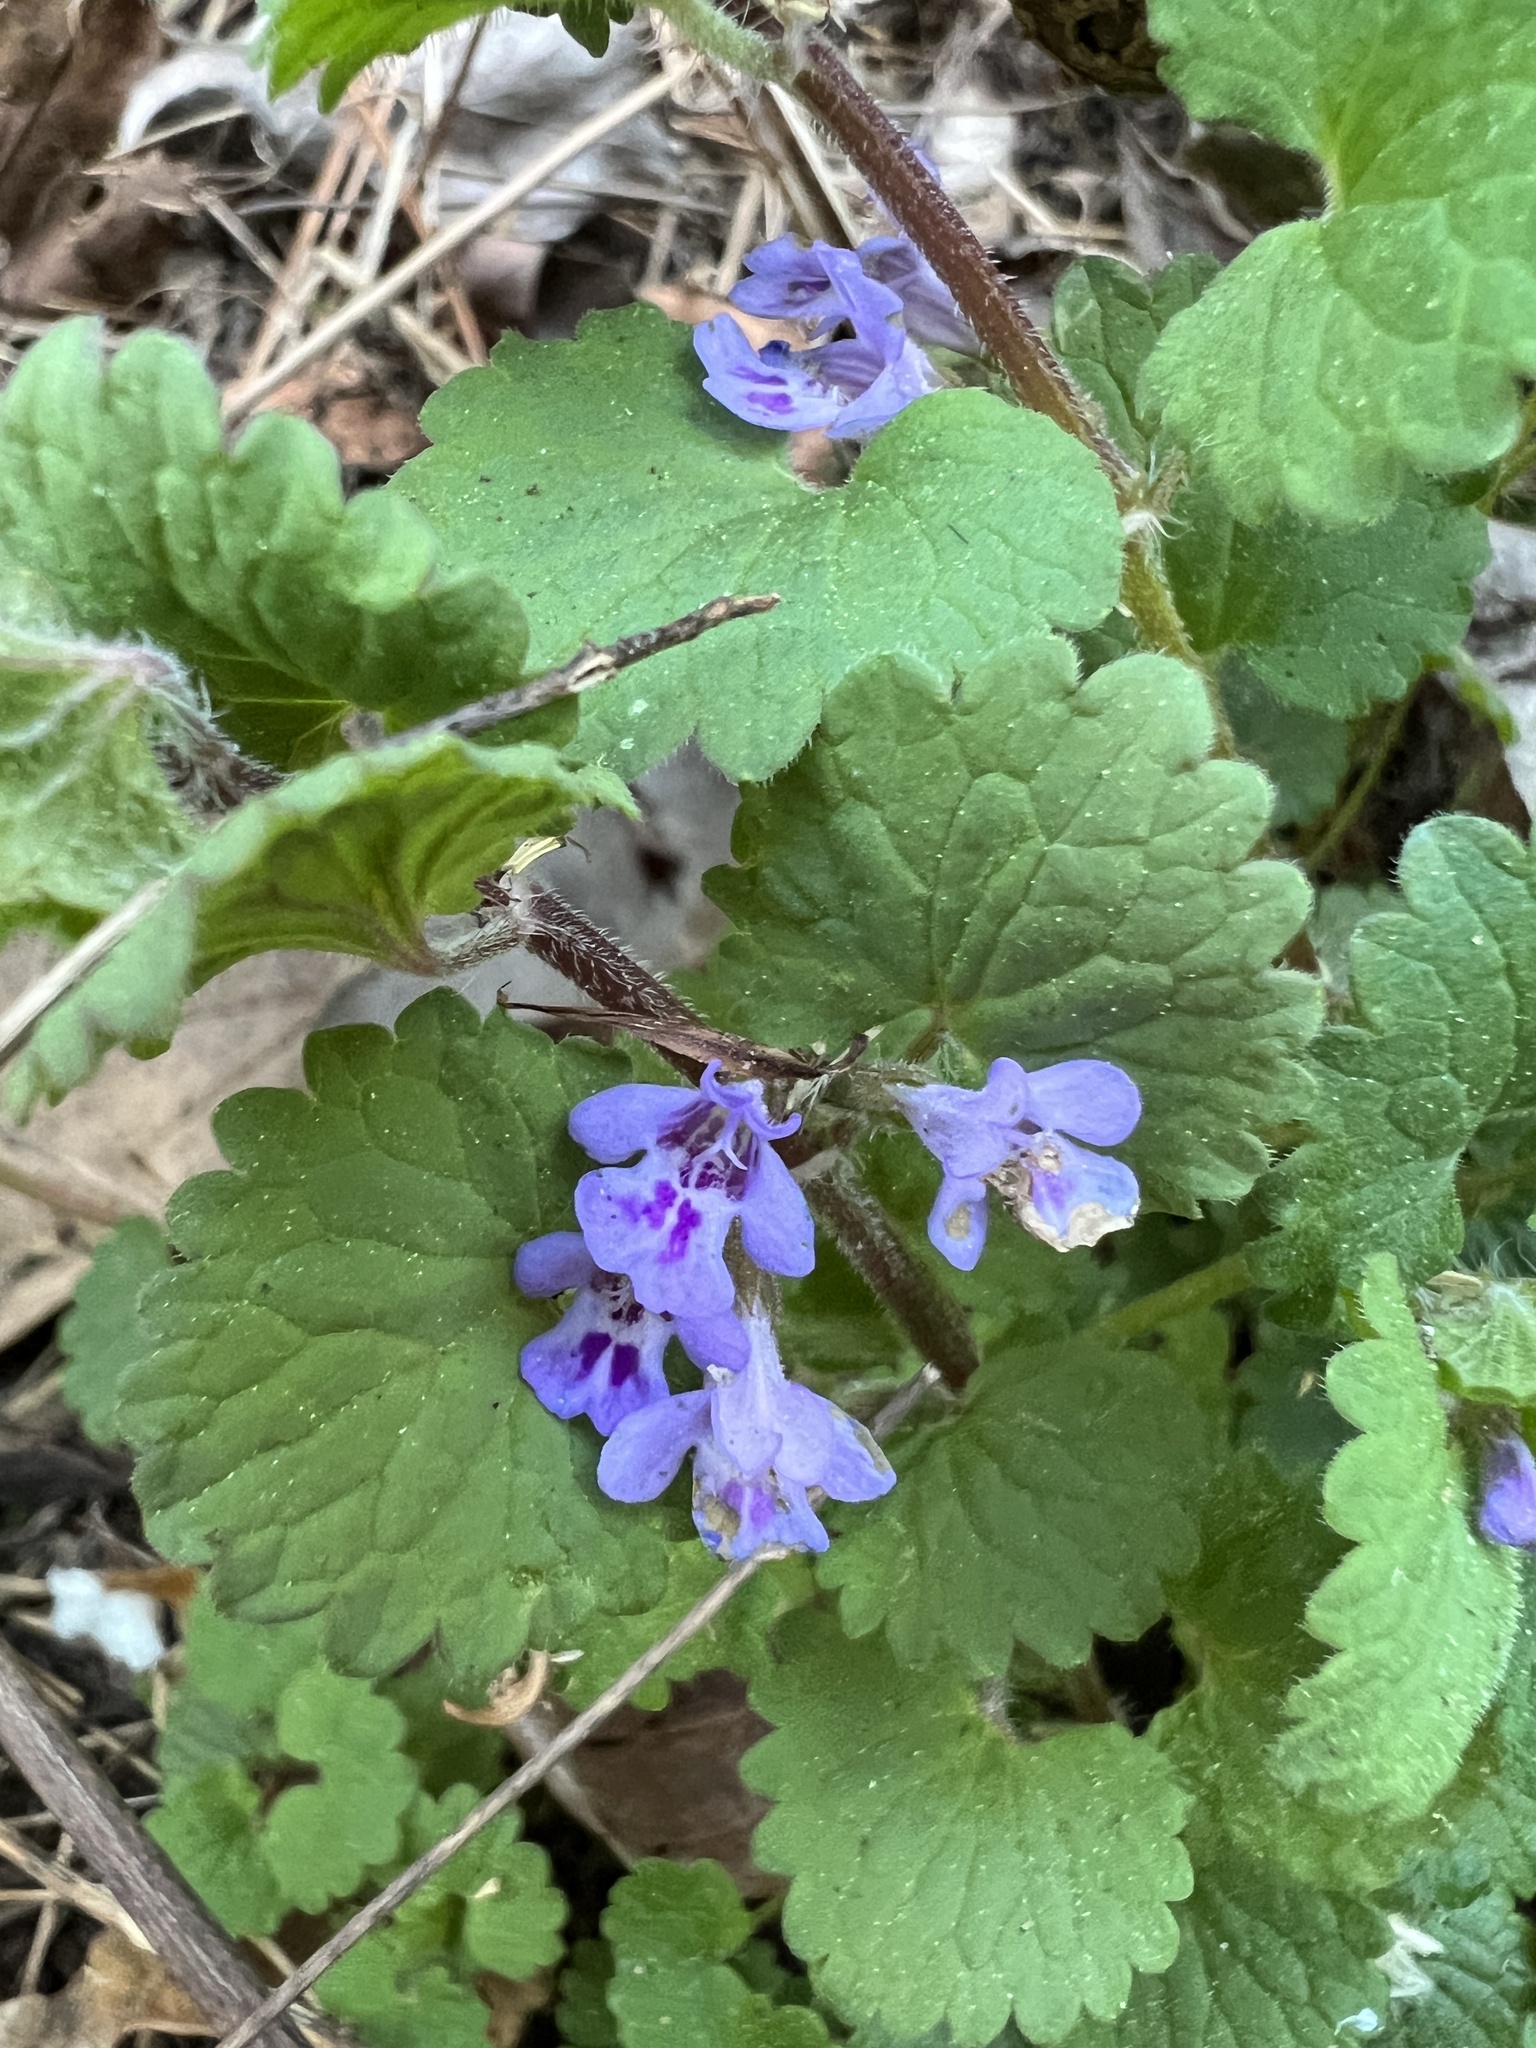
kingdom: Plantae
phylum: Tracheophyta
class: Magnoliopsida
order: Lamiales
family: Lamiaceae
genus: Glechoma
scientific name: Glechoma hederacea
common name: Ground ivy
